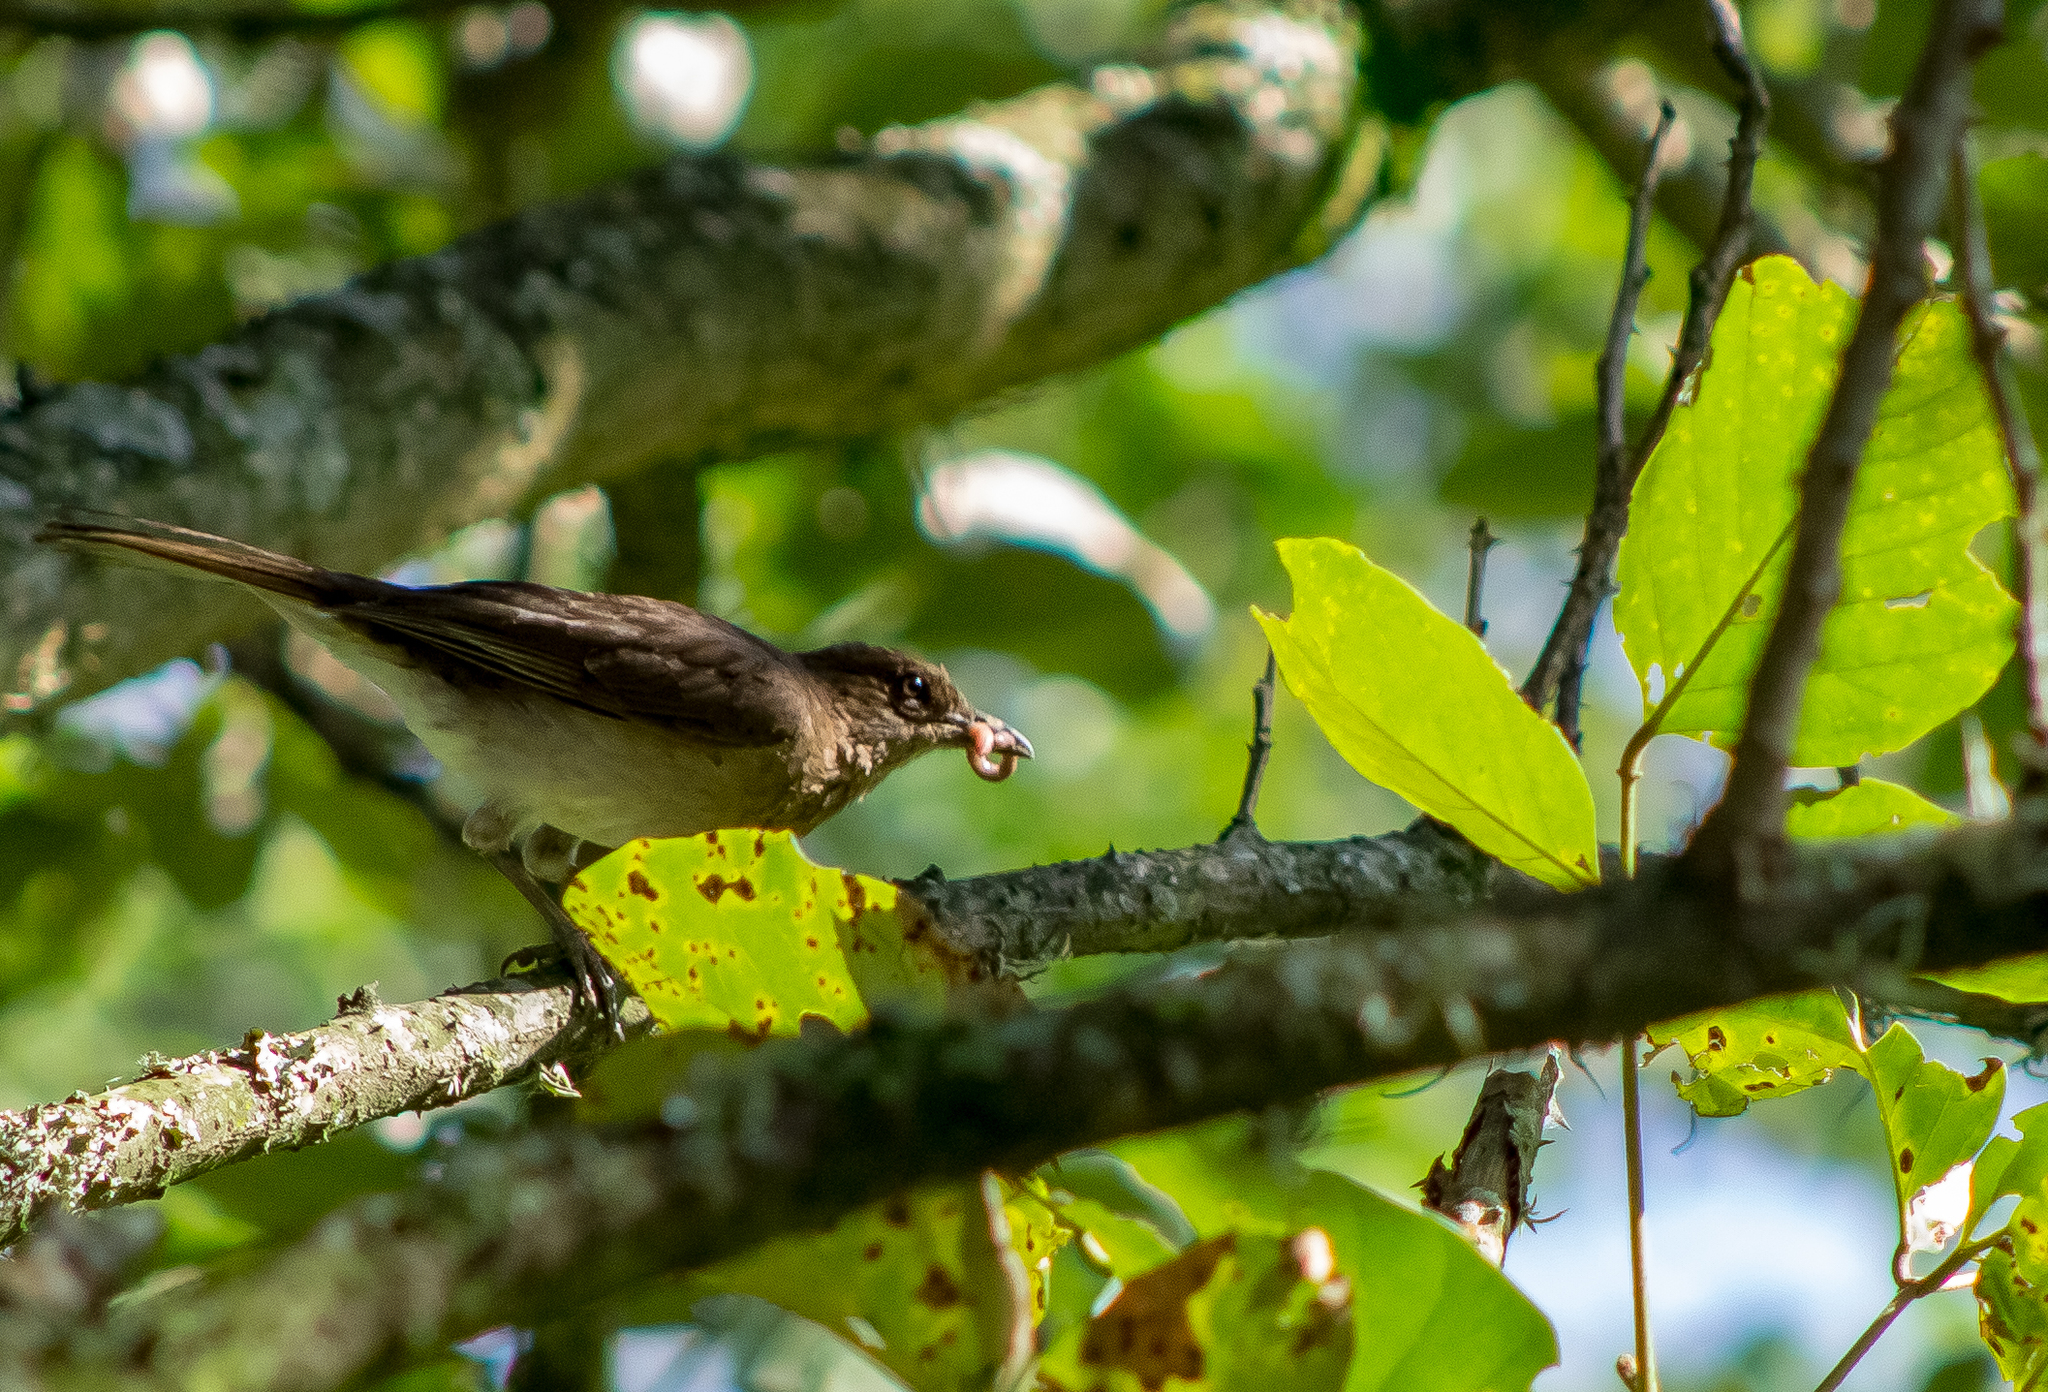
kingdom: Animalia
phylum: Chordata
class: Aves
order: Passeriformes
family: Turdidae
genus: Turdus
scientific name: Turdus ignobilis
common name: Black-billed thrush
